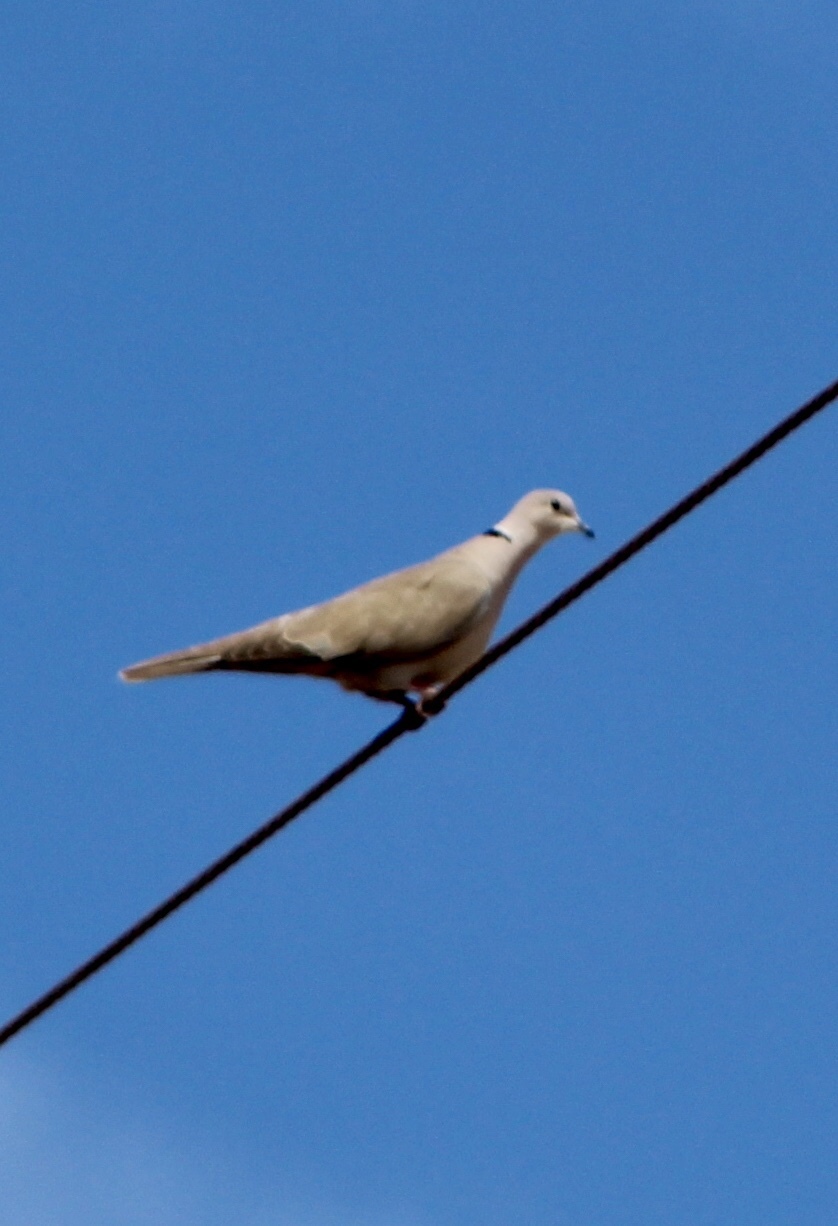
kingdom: Animalia
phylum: Chordata
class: Aves
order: Columbiformes
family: Columbidae
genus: Streptopelia
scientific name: Streptopelia decaocto
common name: Eurasian collared dove
